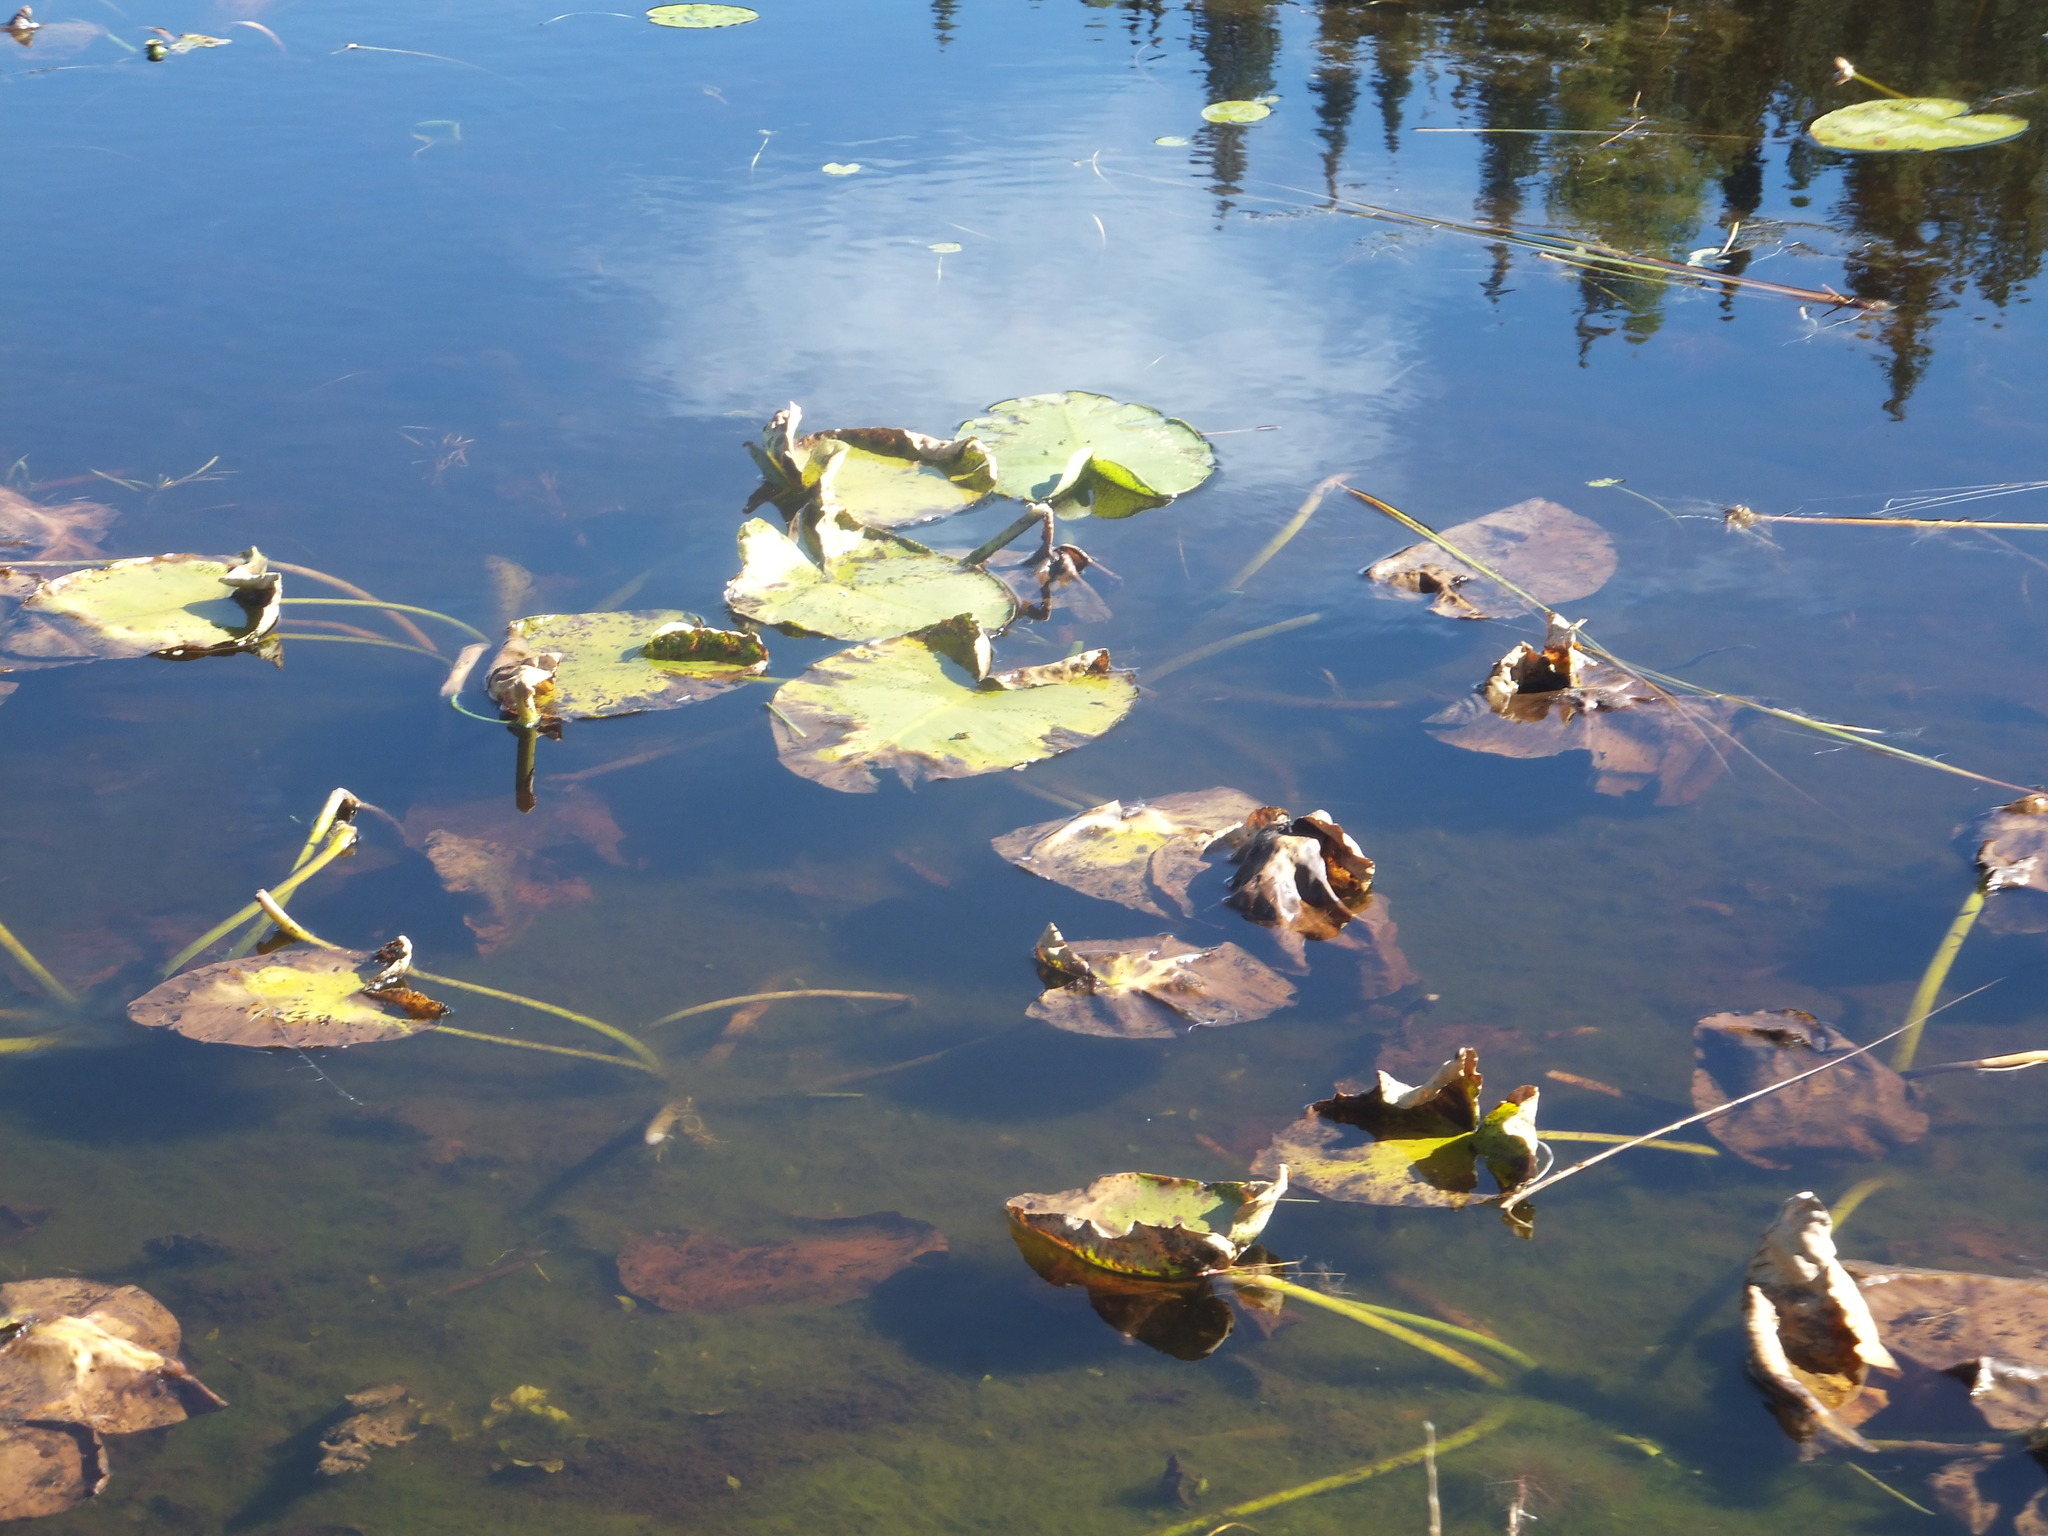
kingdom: Plantae
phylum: Tracheophyta
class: Magnoliopsida
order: Nymphaeales
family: Nymphaeaceae
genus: Nuphar
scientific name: Nuphar polysepala
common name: Rocky mountain cow-lily
